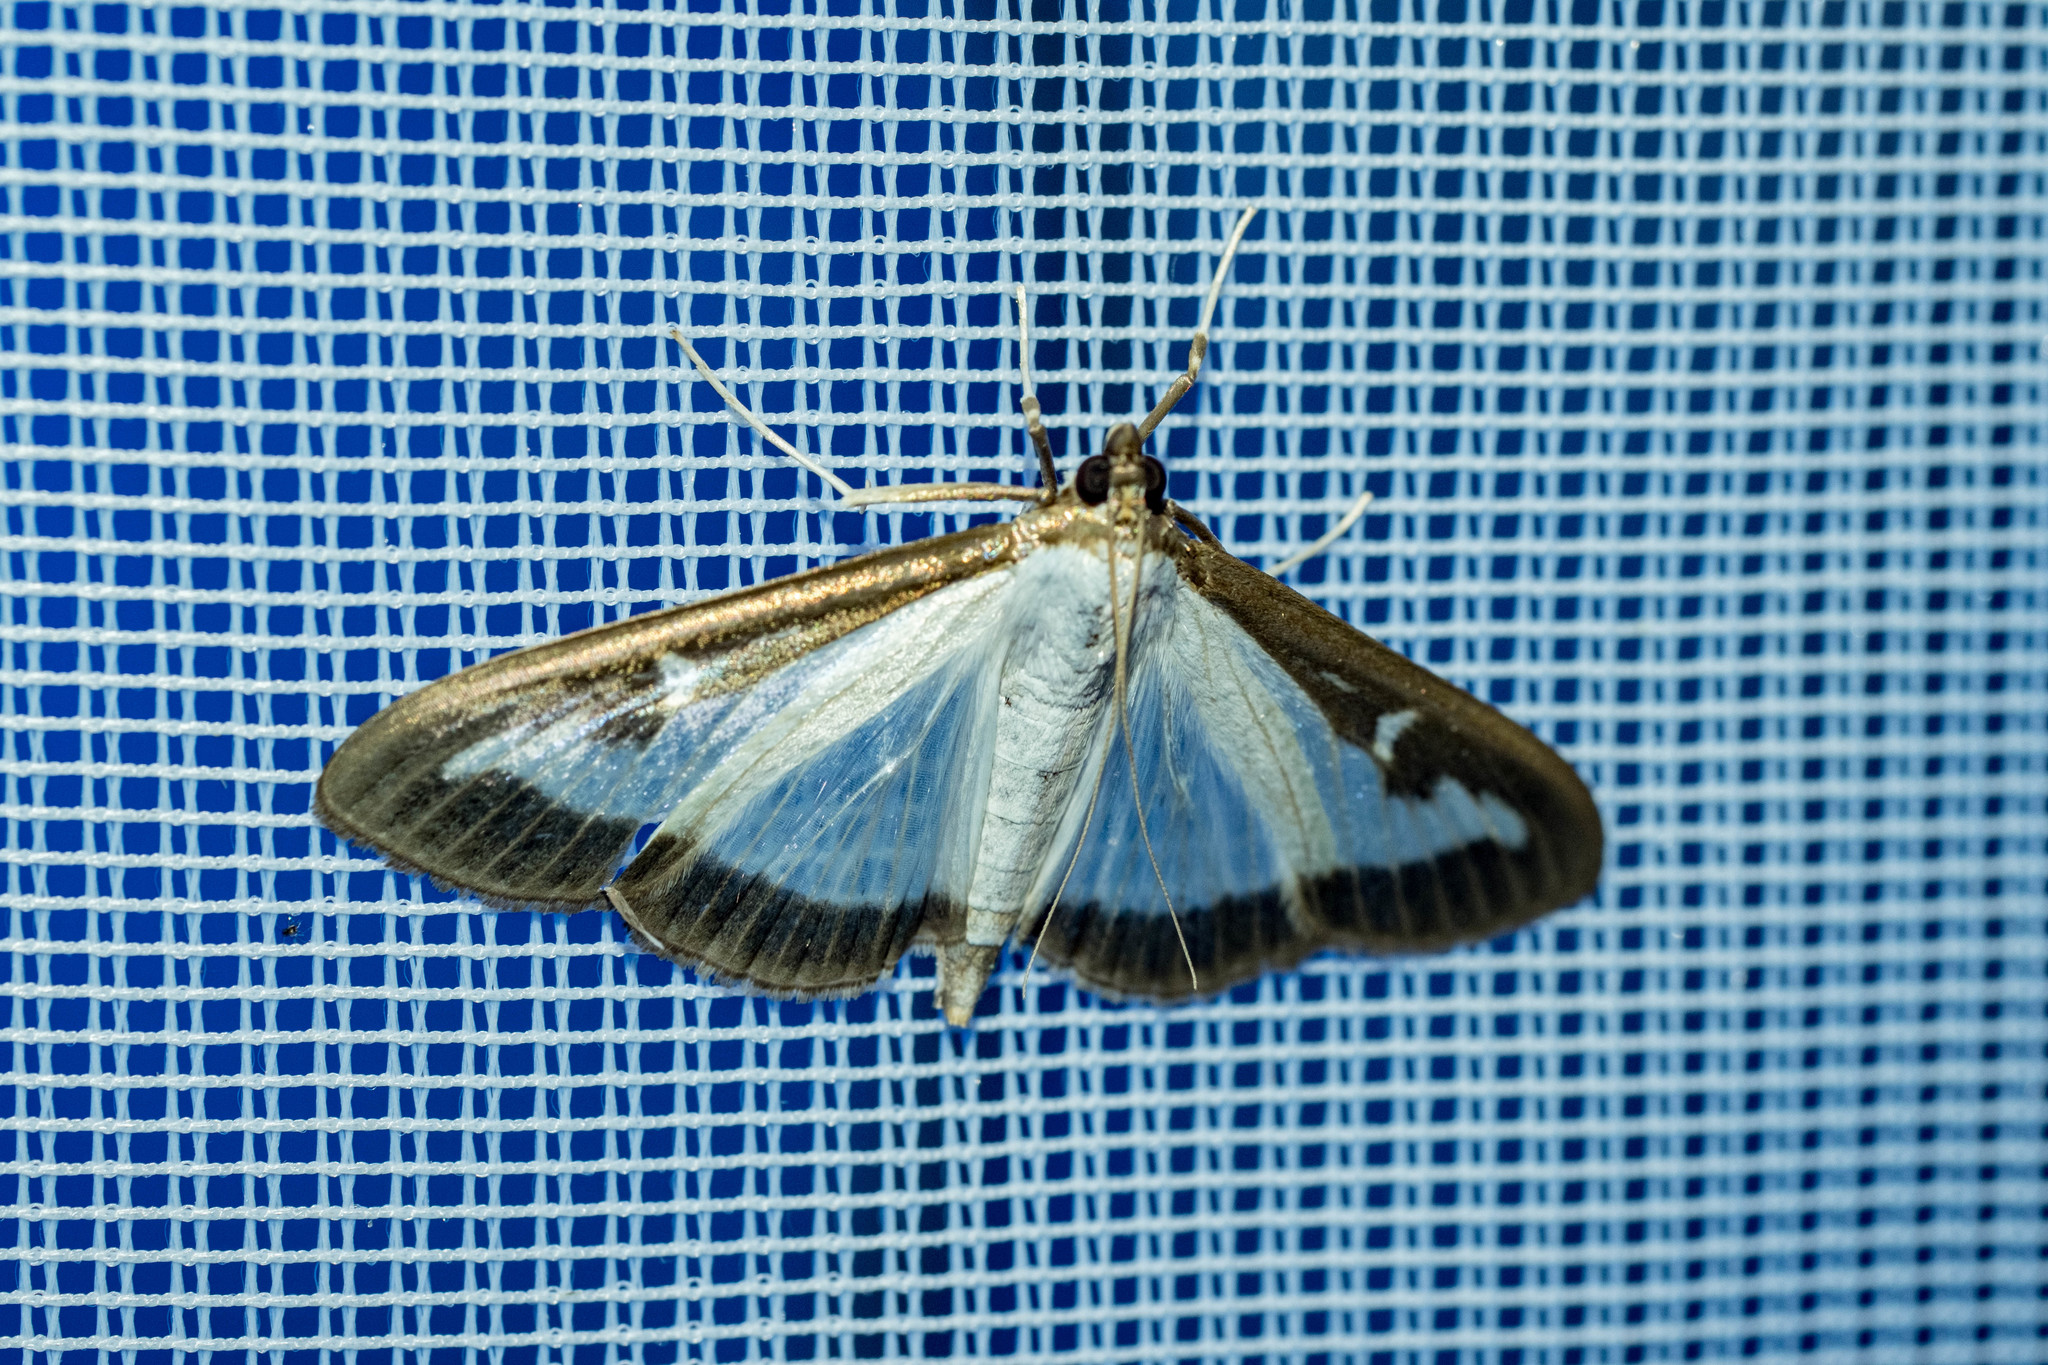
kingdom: Animalia
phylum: Arthropoda
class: Insecta
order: Lepidoptera
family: Crambidae
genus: Cydalima
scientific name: Cydalima perspectalis
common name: Box tree moth
